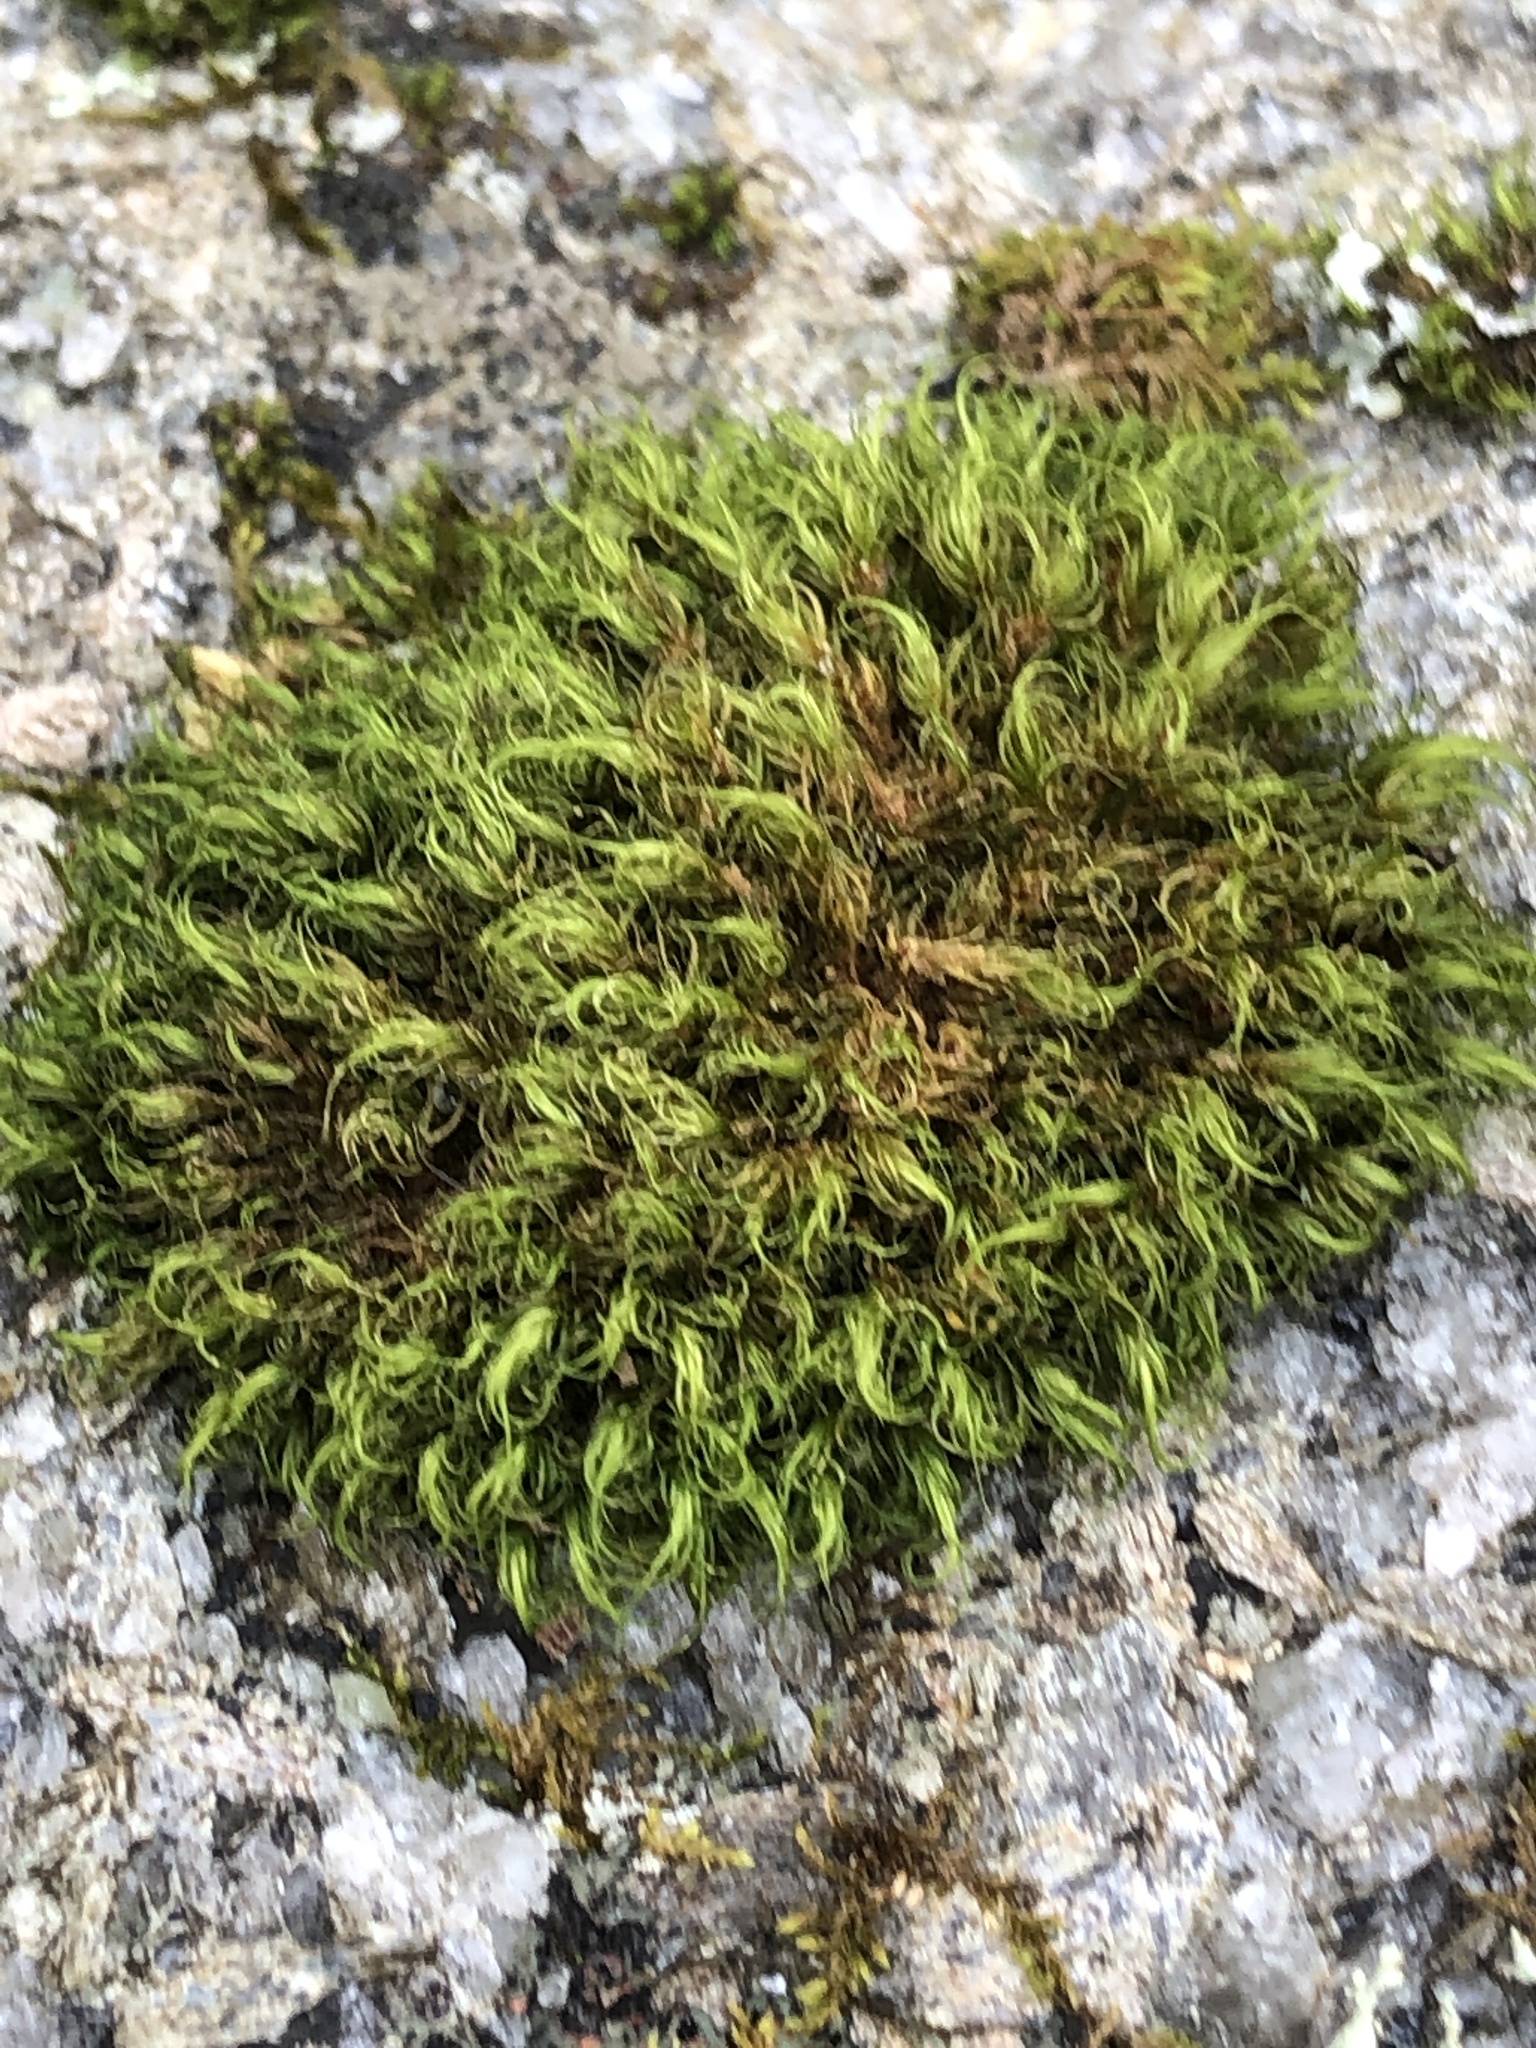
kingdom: Plantae
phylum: Bryophyta
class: Bryopsida
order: Dicranales
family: Dicranaceae
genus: Dicranum
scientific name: Dicranum scoparium
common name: Broom fork-moss
